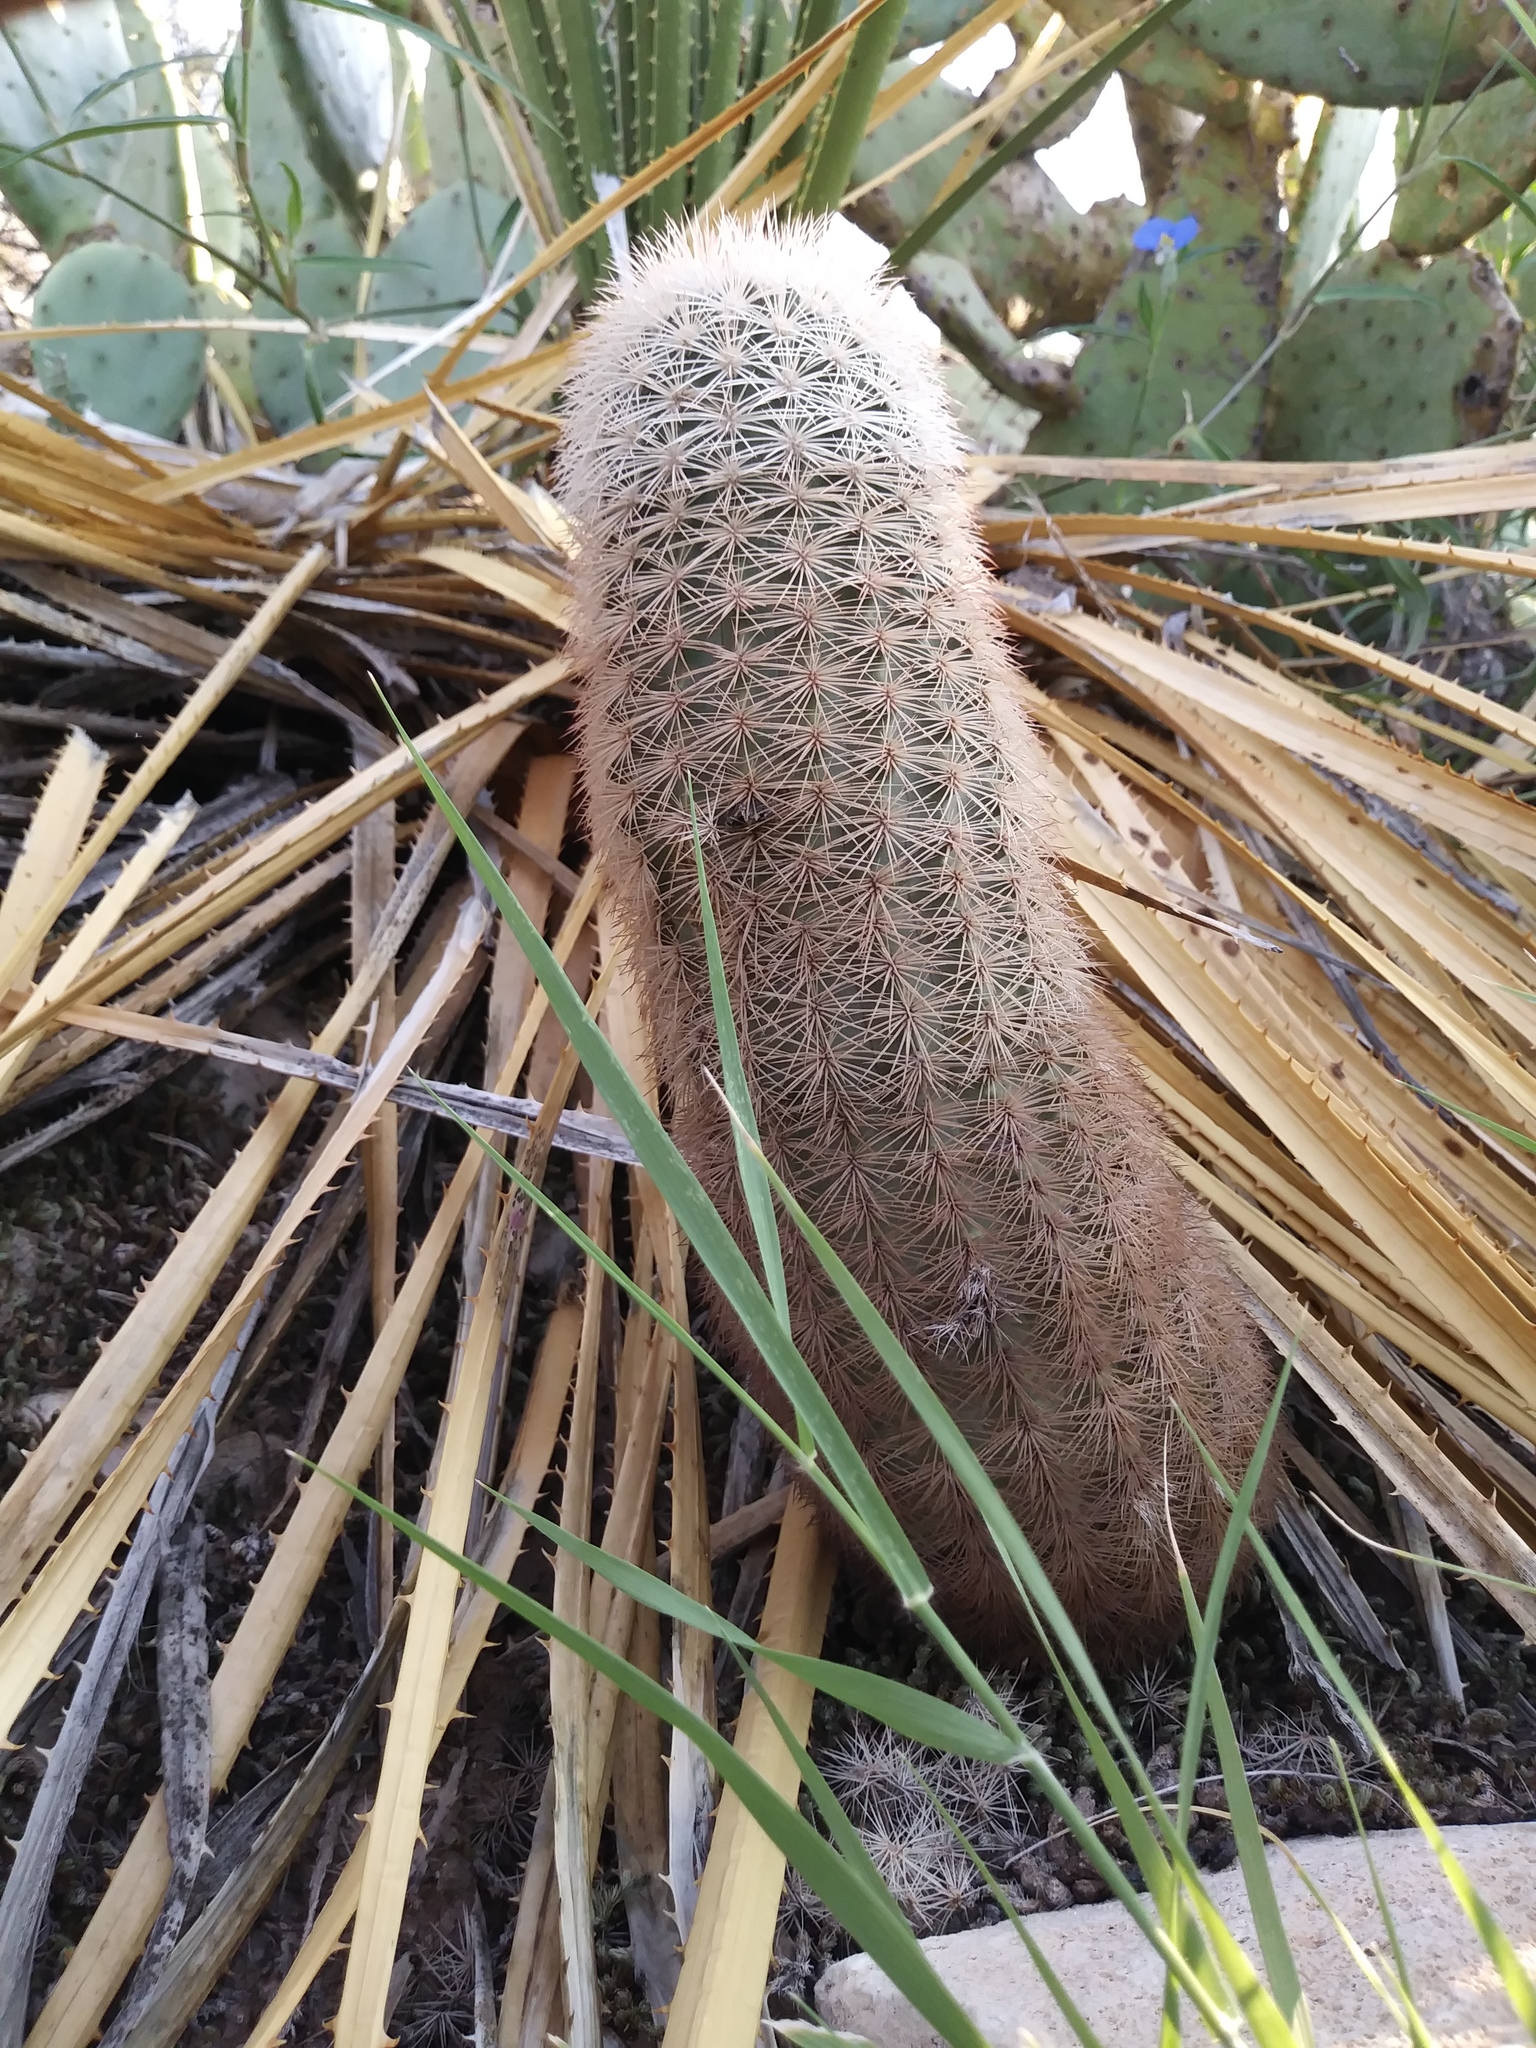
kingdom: Plantae
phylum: Tracheophyta
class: Magnoliopsida
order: Caryophyllales
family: Cactaceae
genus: Echinocereus
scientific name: Echinocereus dasyacanthus
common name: Spiny hedgehog cactus
